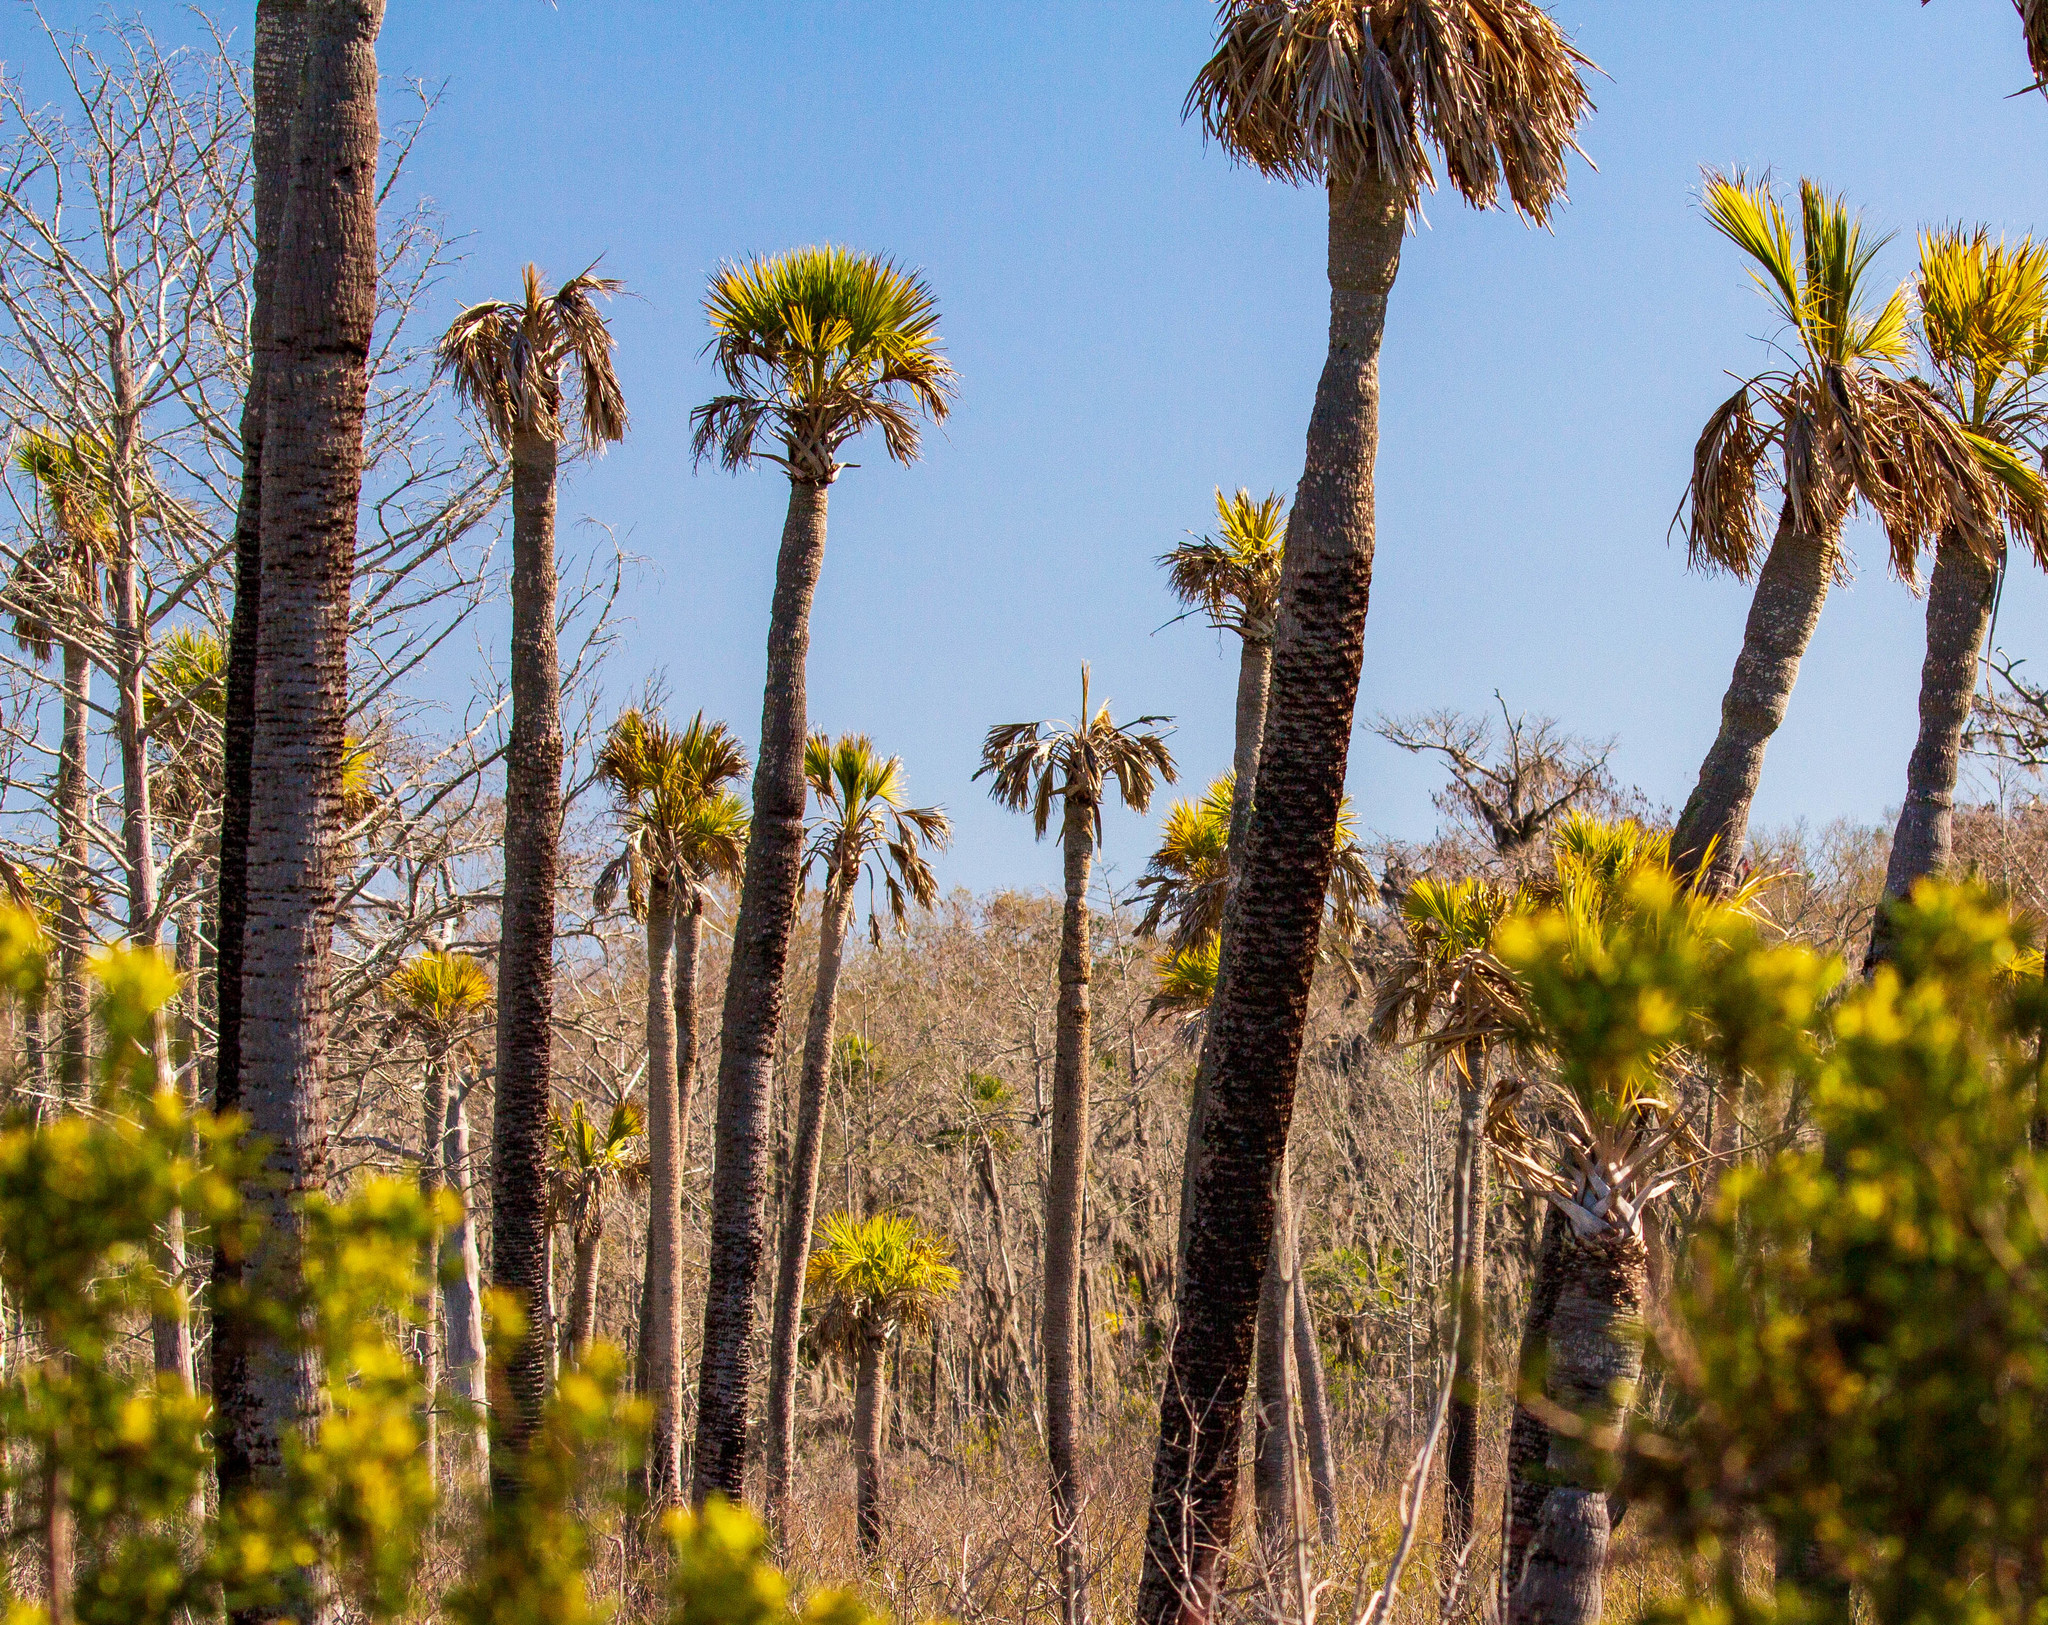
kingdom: Plantae
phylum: Tracheophyta
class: Liliopsida
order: Arecales
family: Arecaceae
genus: Sabal
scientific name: Sabal palmetto
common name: Blue palmetto
